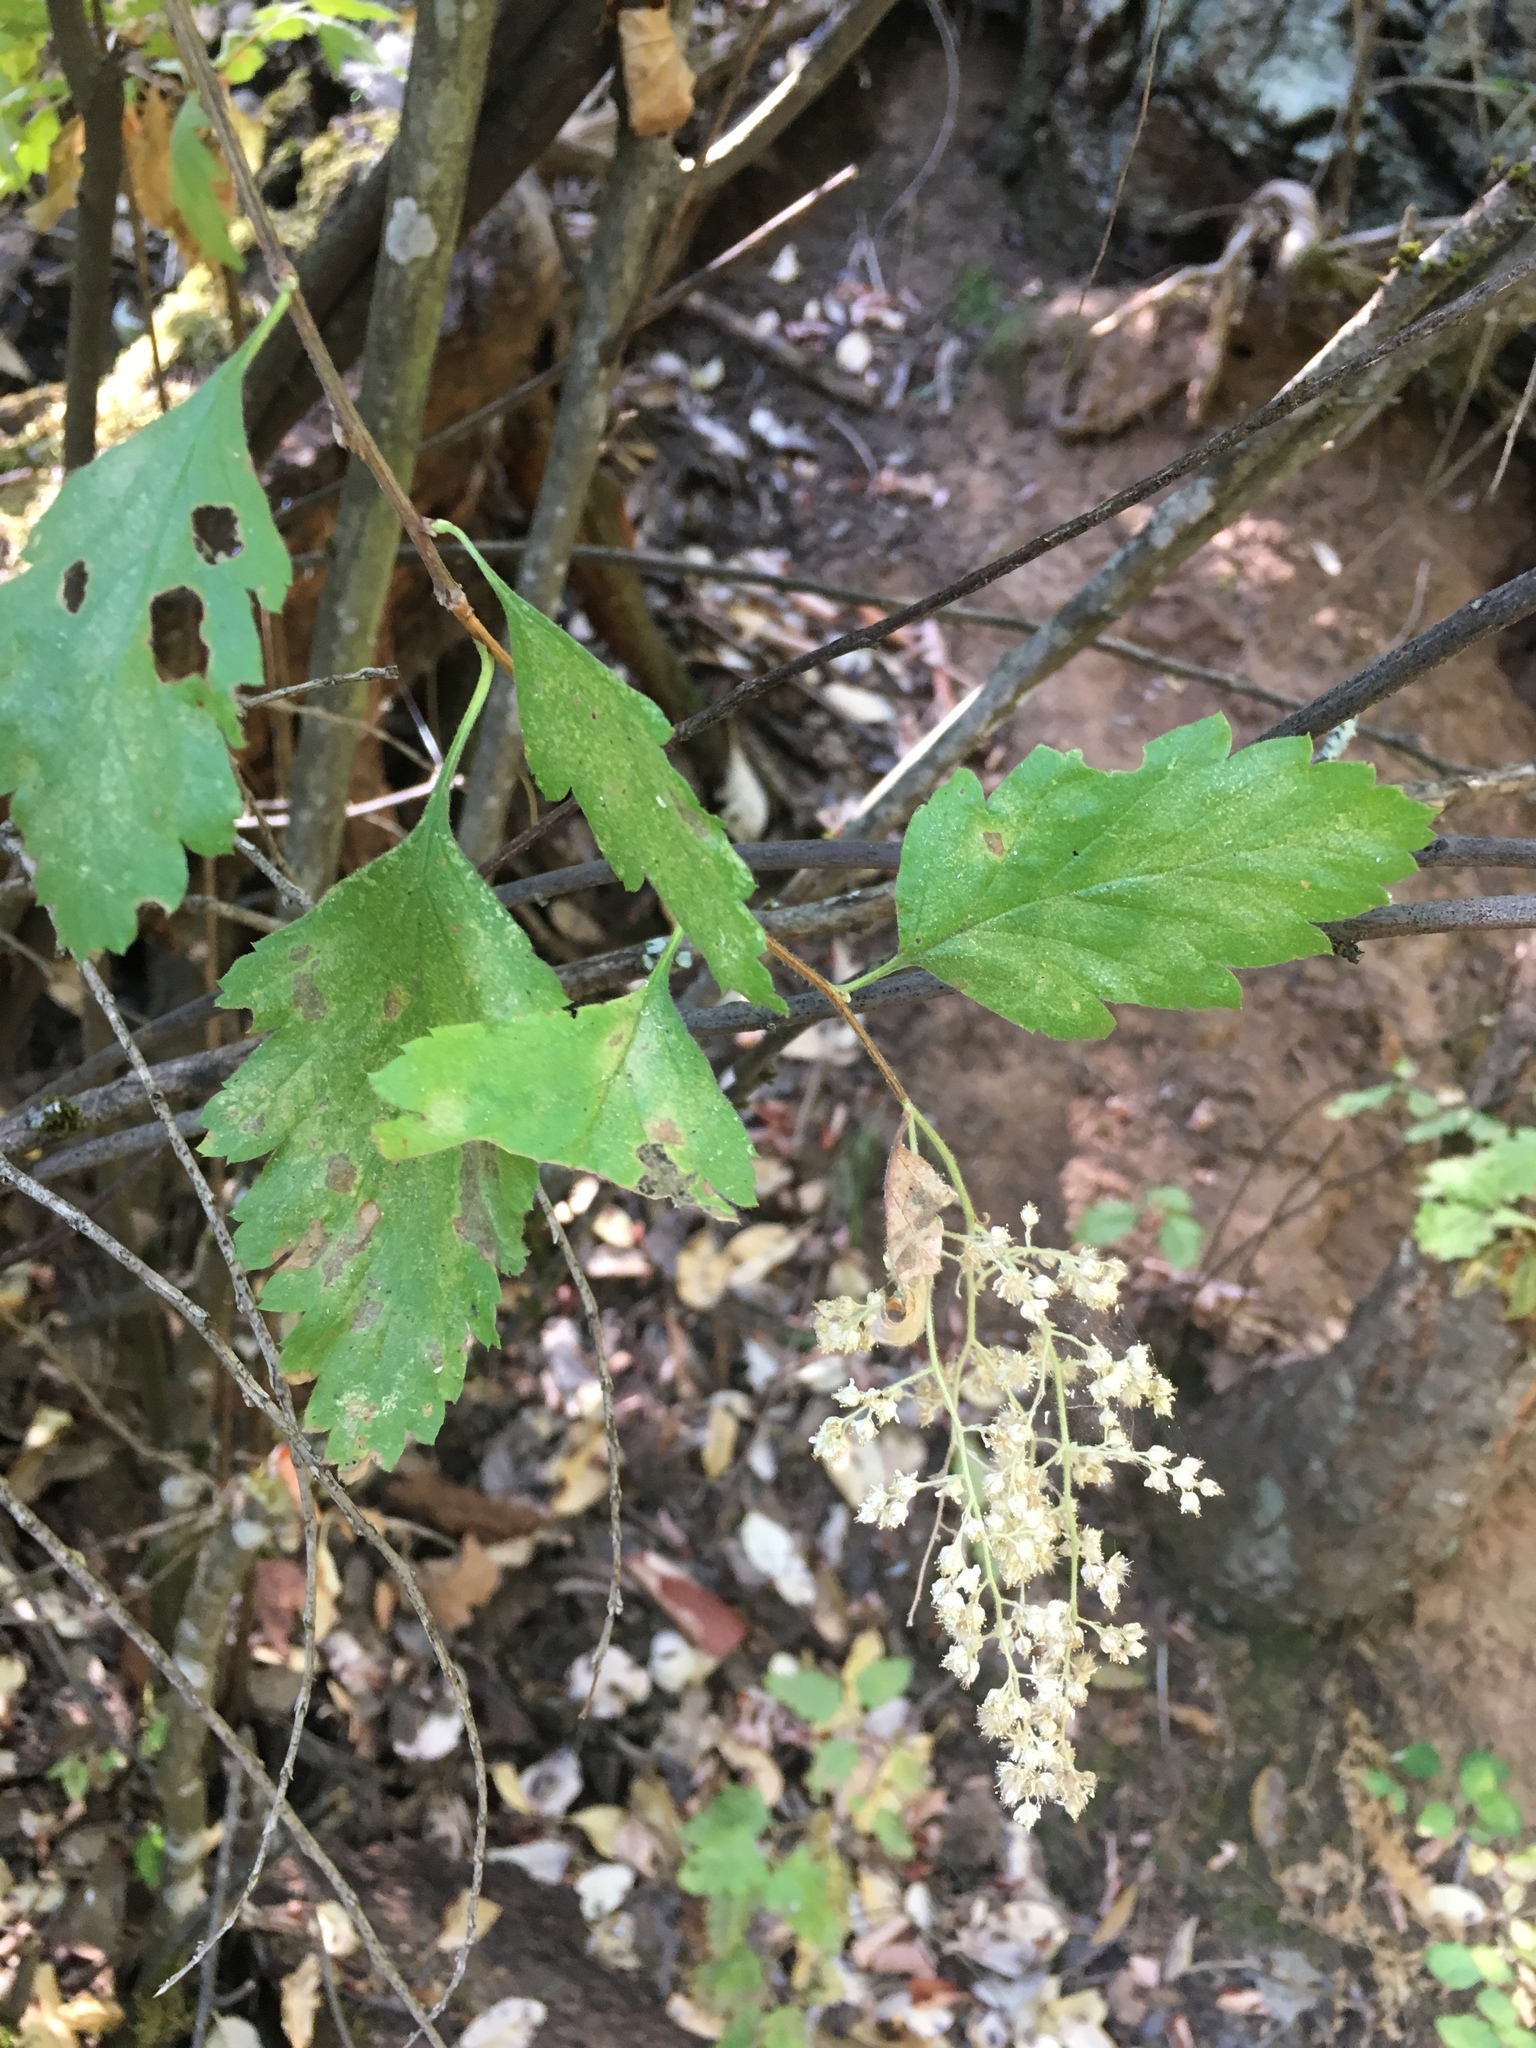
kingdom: Plantae
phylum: Tracheophyta
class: Magnoliopsida
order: Rosales
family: Rosaceae
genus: Holodiscus
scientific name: Holodiscus discolor
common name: Oceanspray
